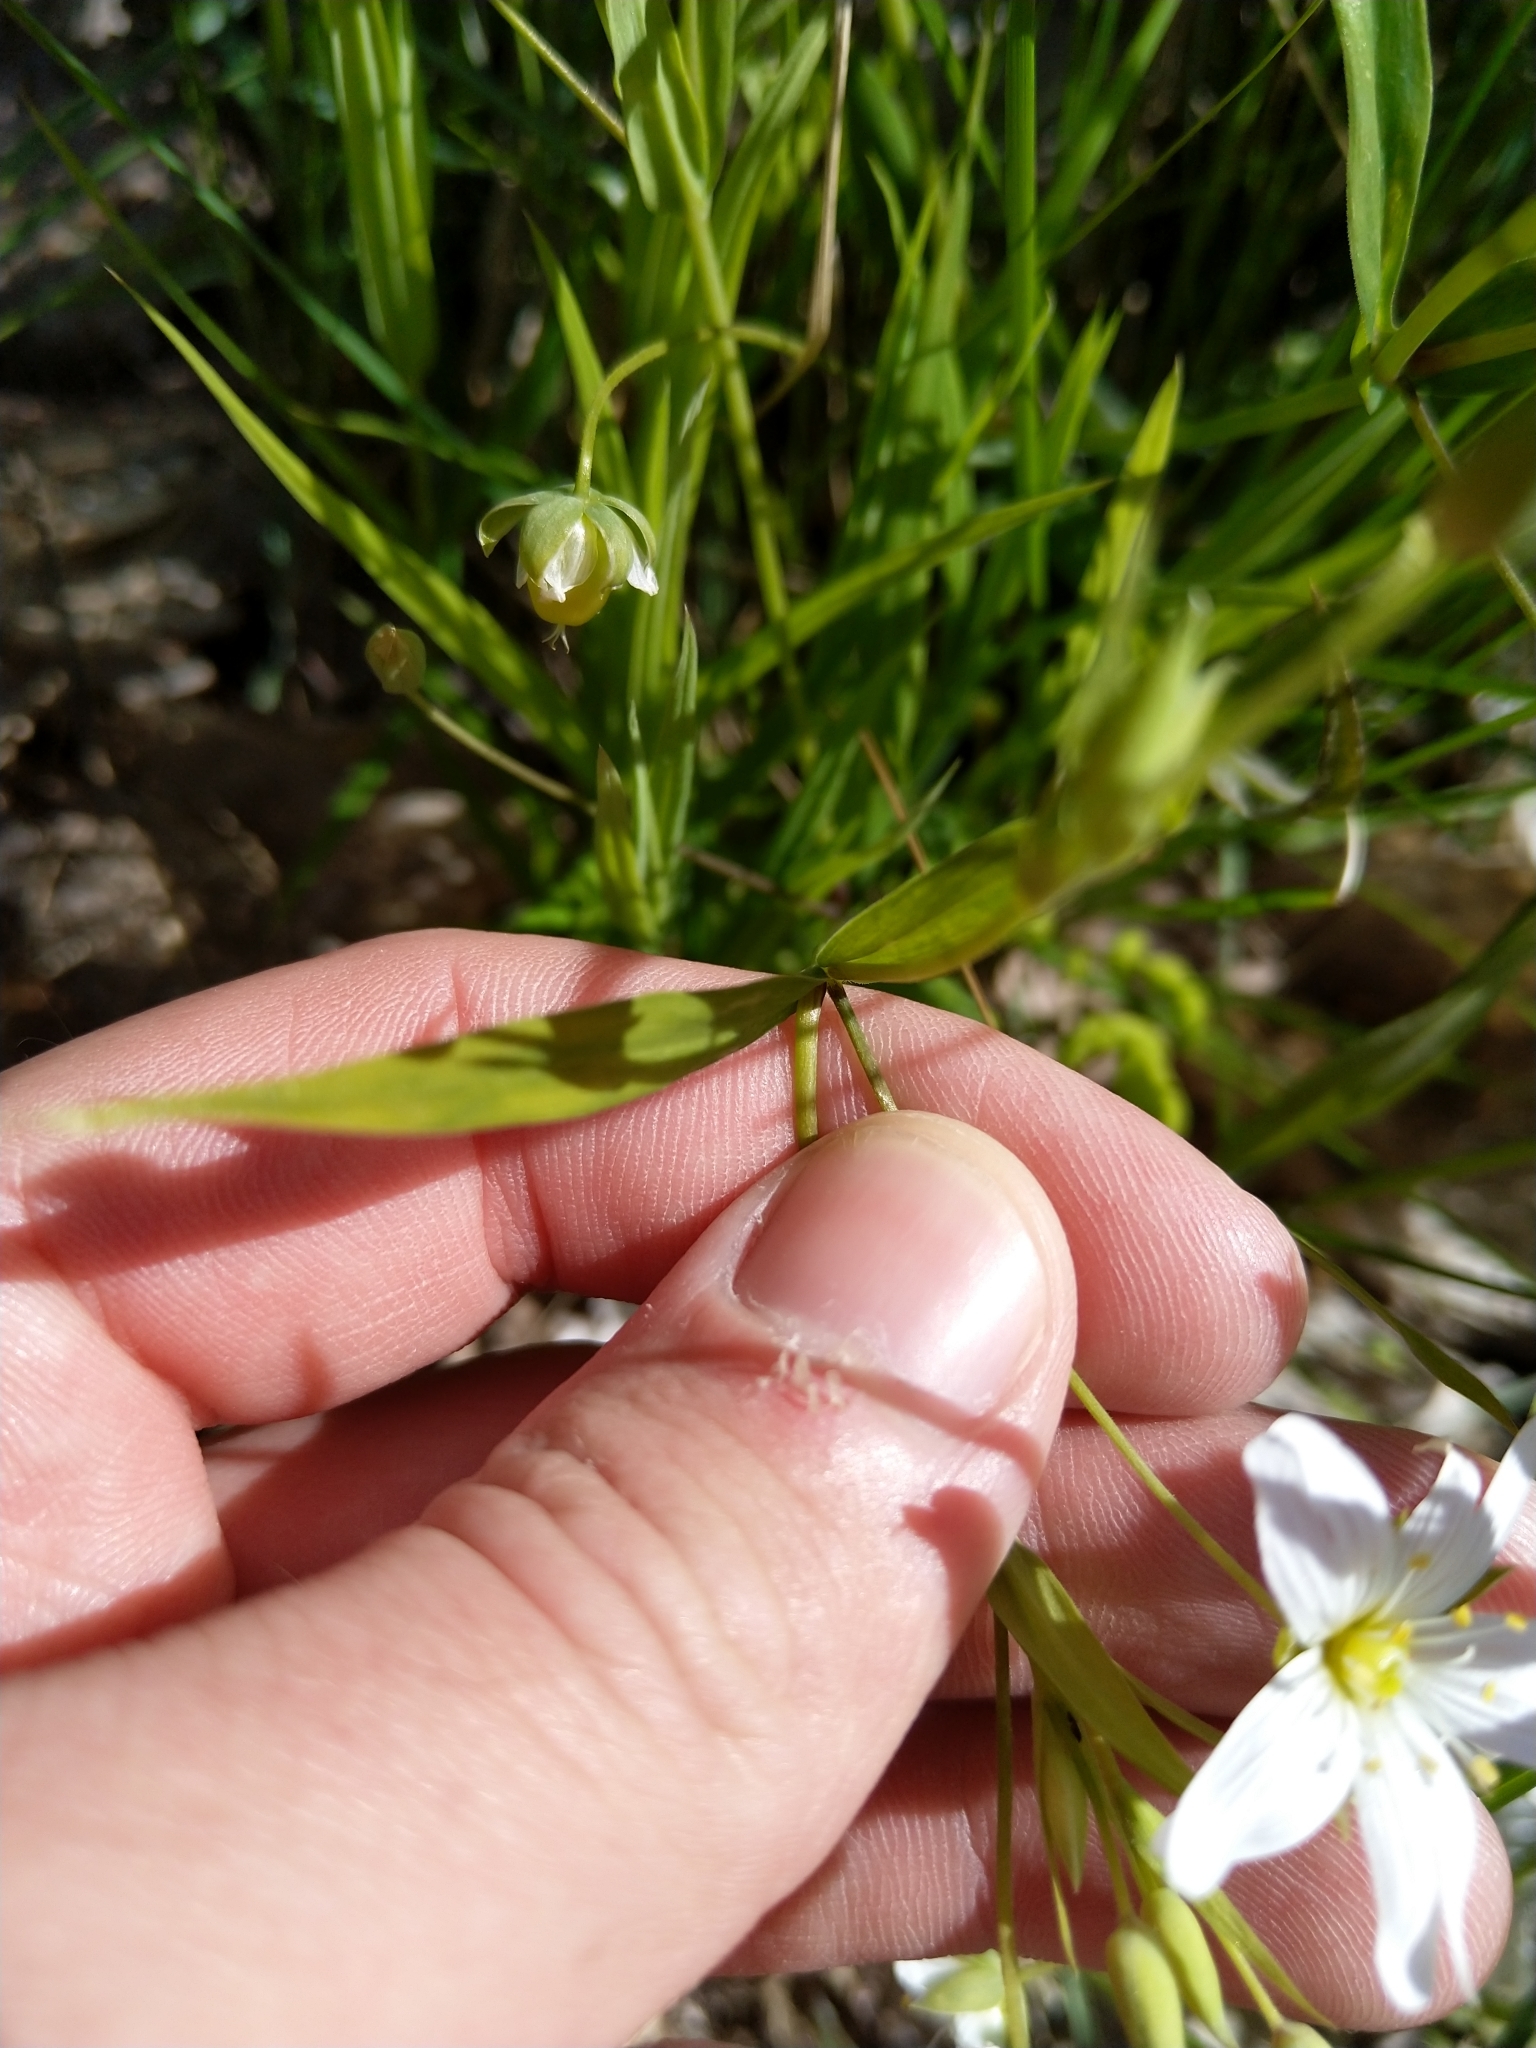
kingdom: Plantae
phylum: Tracheophyta
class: Magnoliopsida
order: Caryophyllales
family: Caryophyllaceae
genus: Rabelera
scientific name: Rabelera holostea
